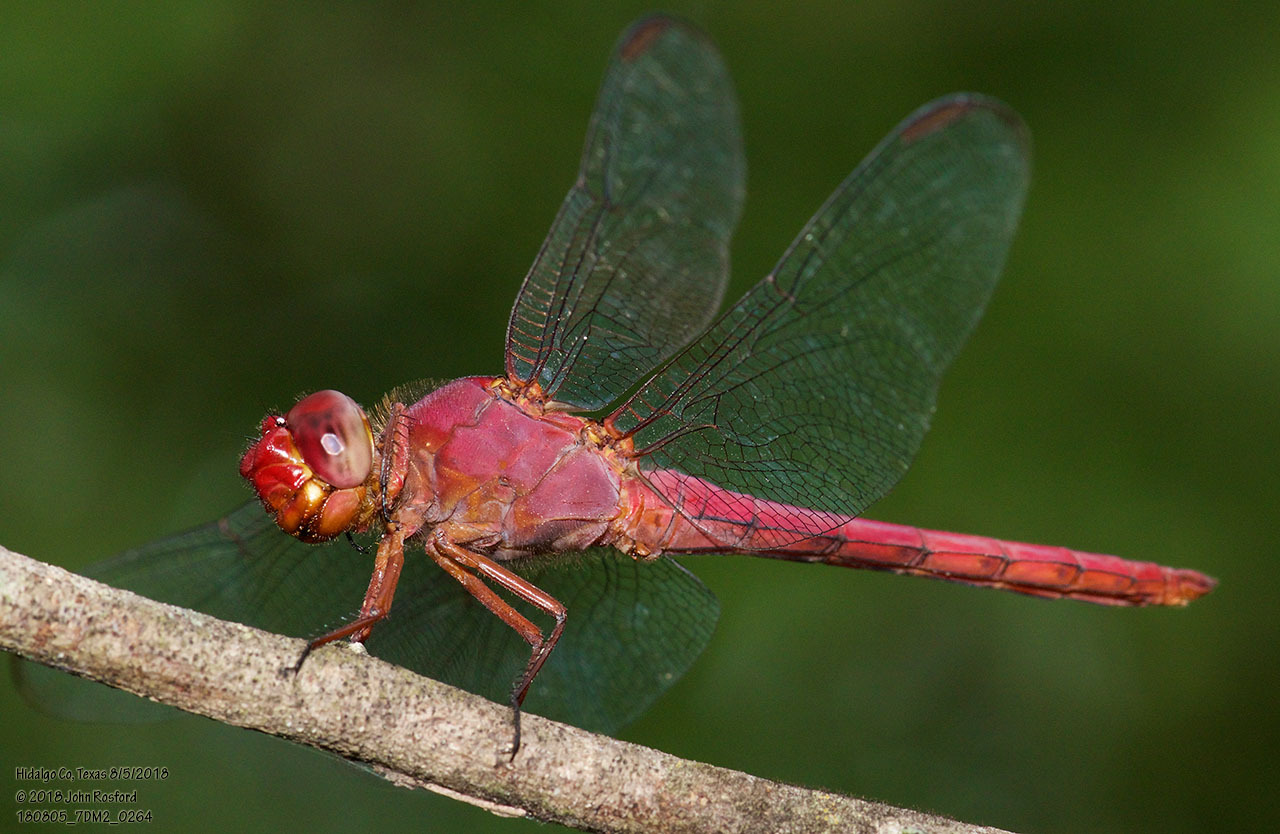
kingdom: Animalia
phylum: Arthropoda
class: Insecta
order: Odonata
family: Libellulidae
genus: Orthemis
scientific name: Orthemis discolor
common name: Carmine skimmer
